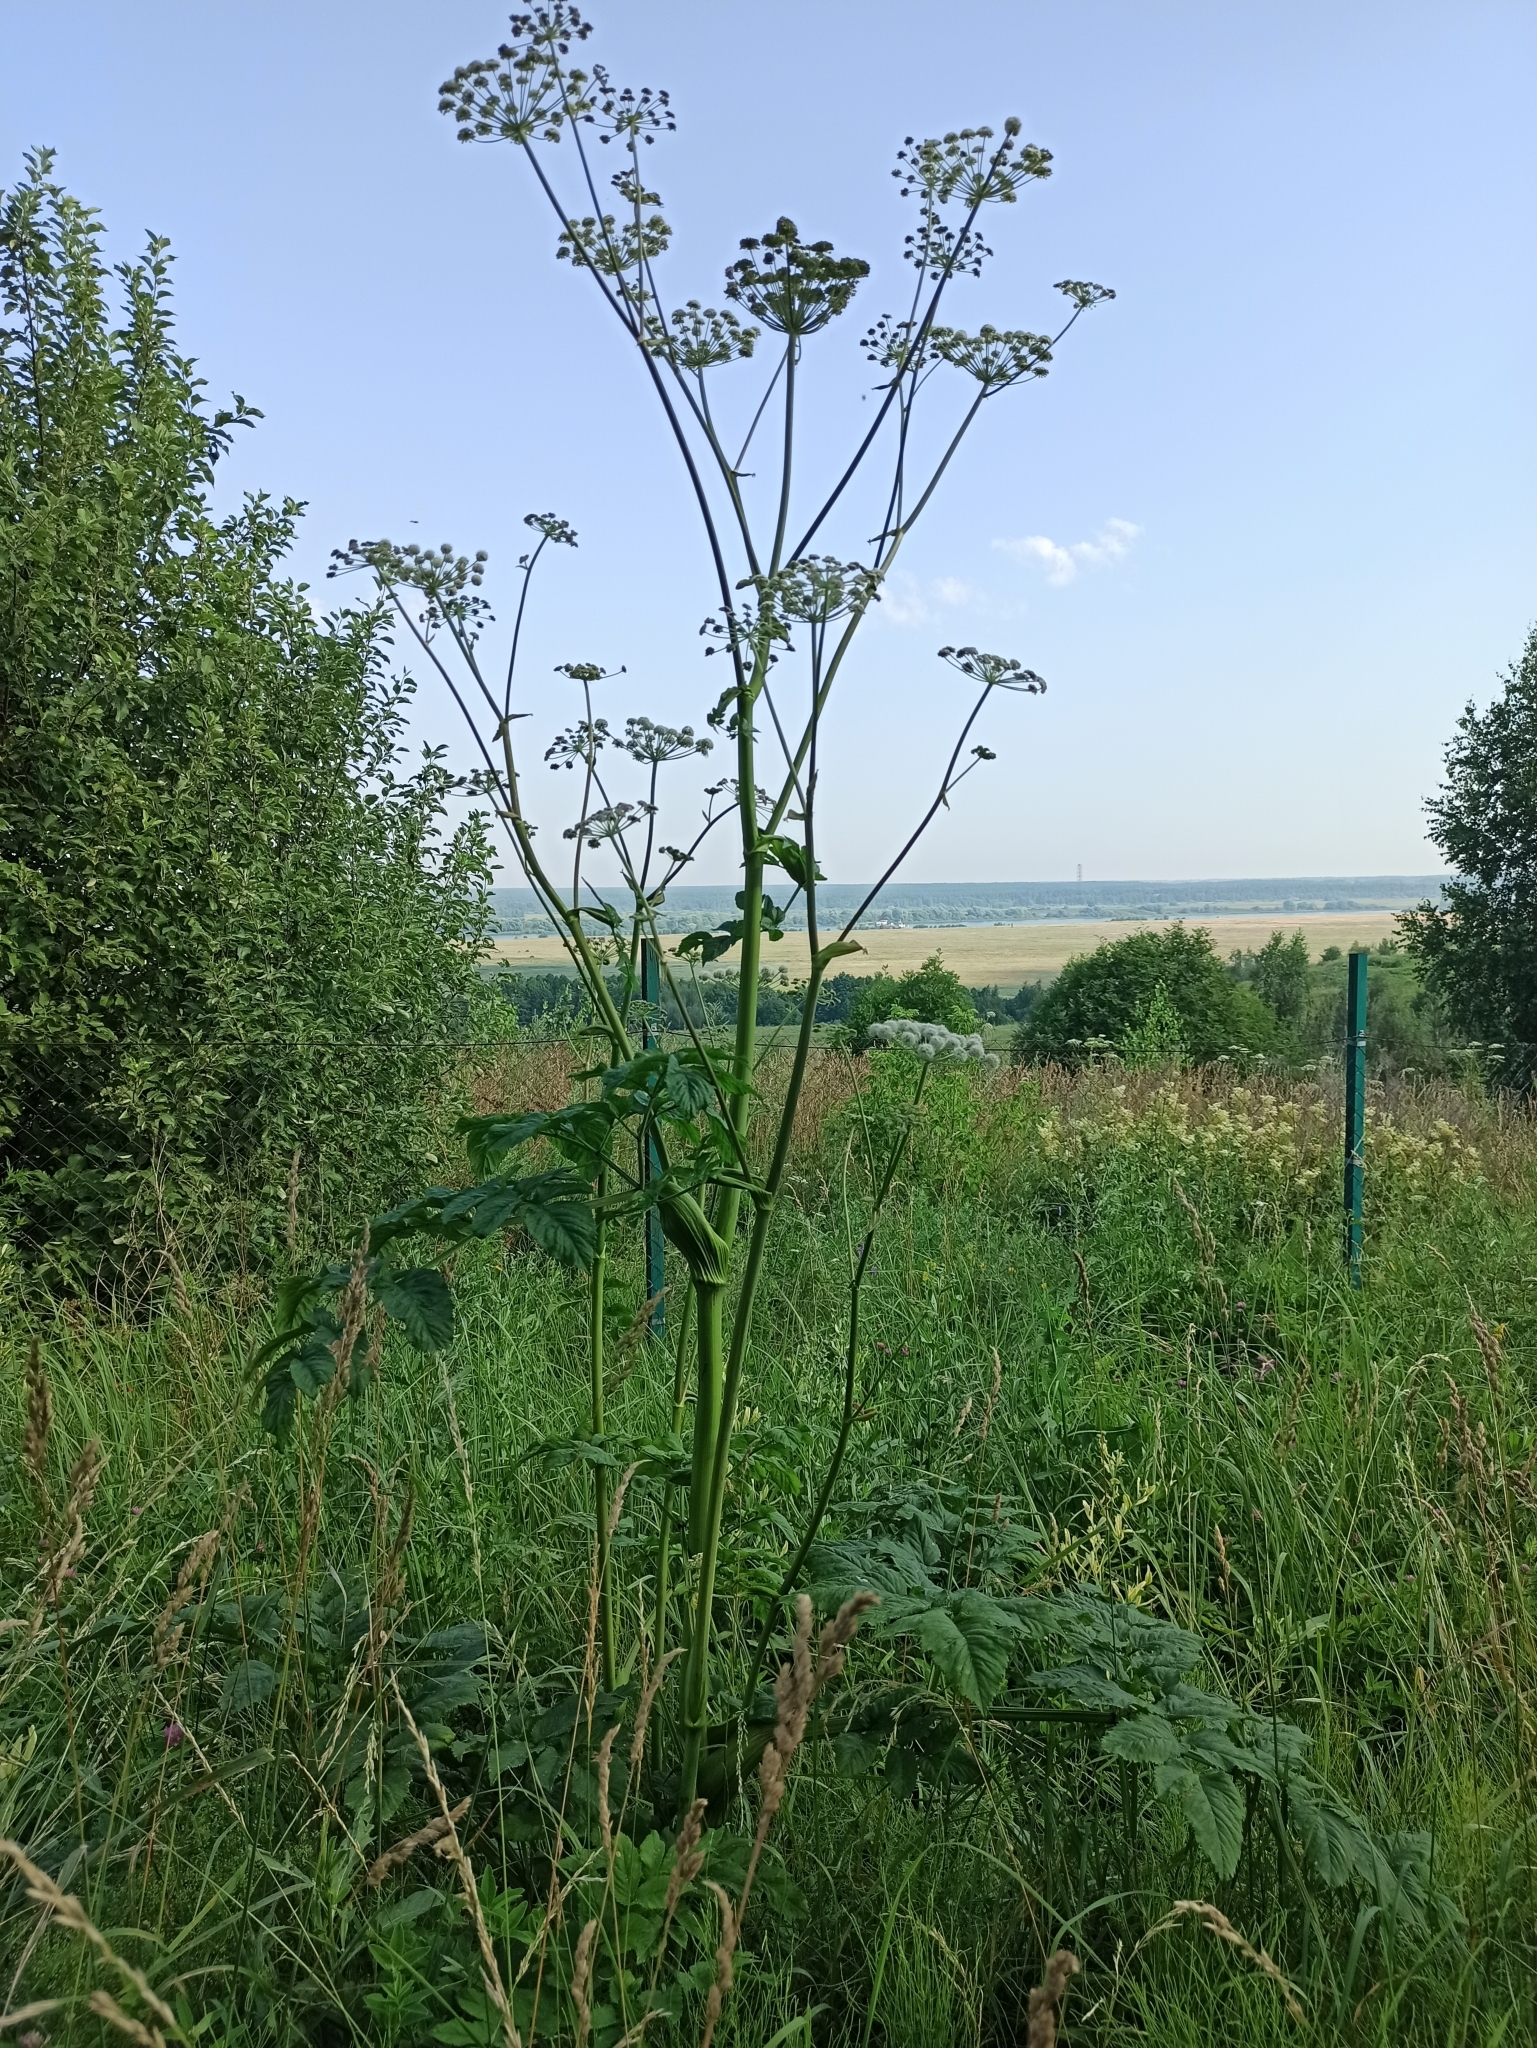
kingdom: Plantae
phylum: Tracheophyta
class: Magnoliopsida
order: Apiales
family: Apiaceae
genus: Angelica
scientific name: Angelica sylvestris
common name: Wild angelica
